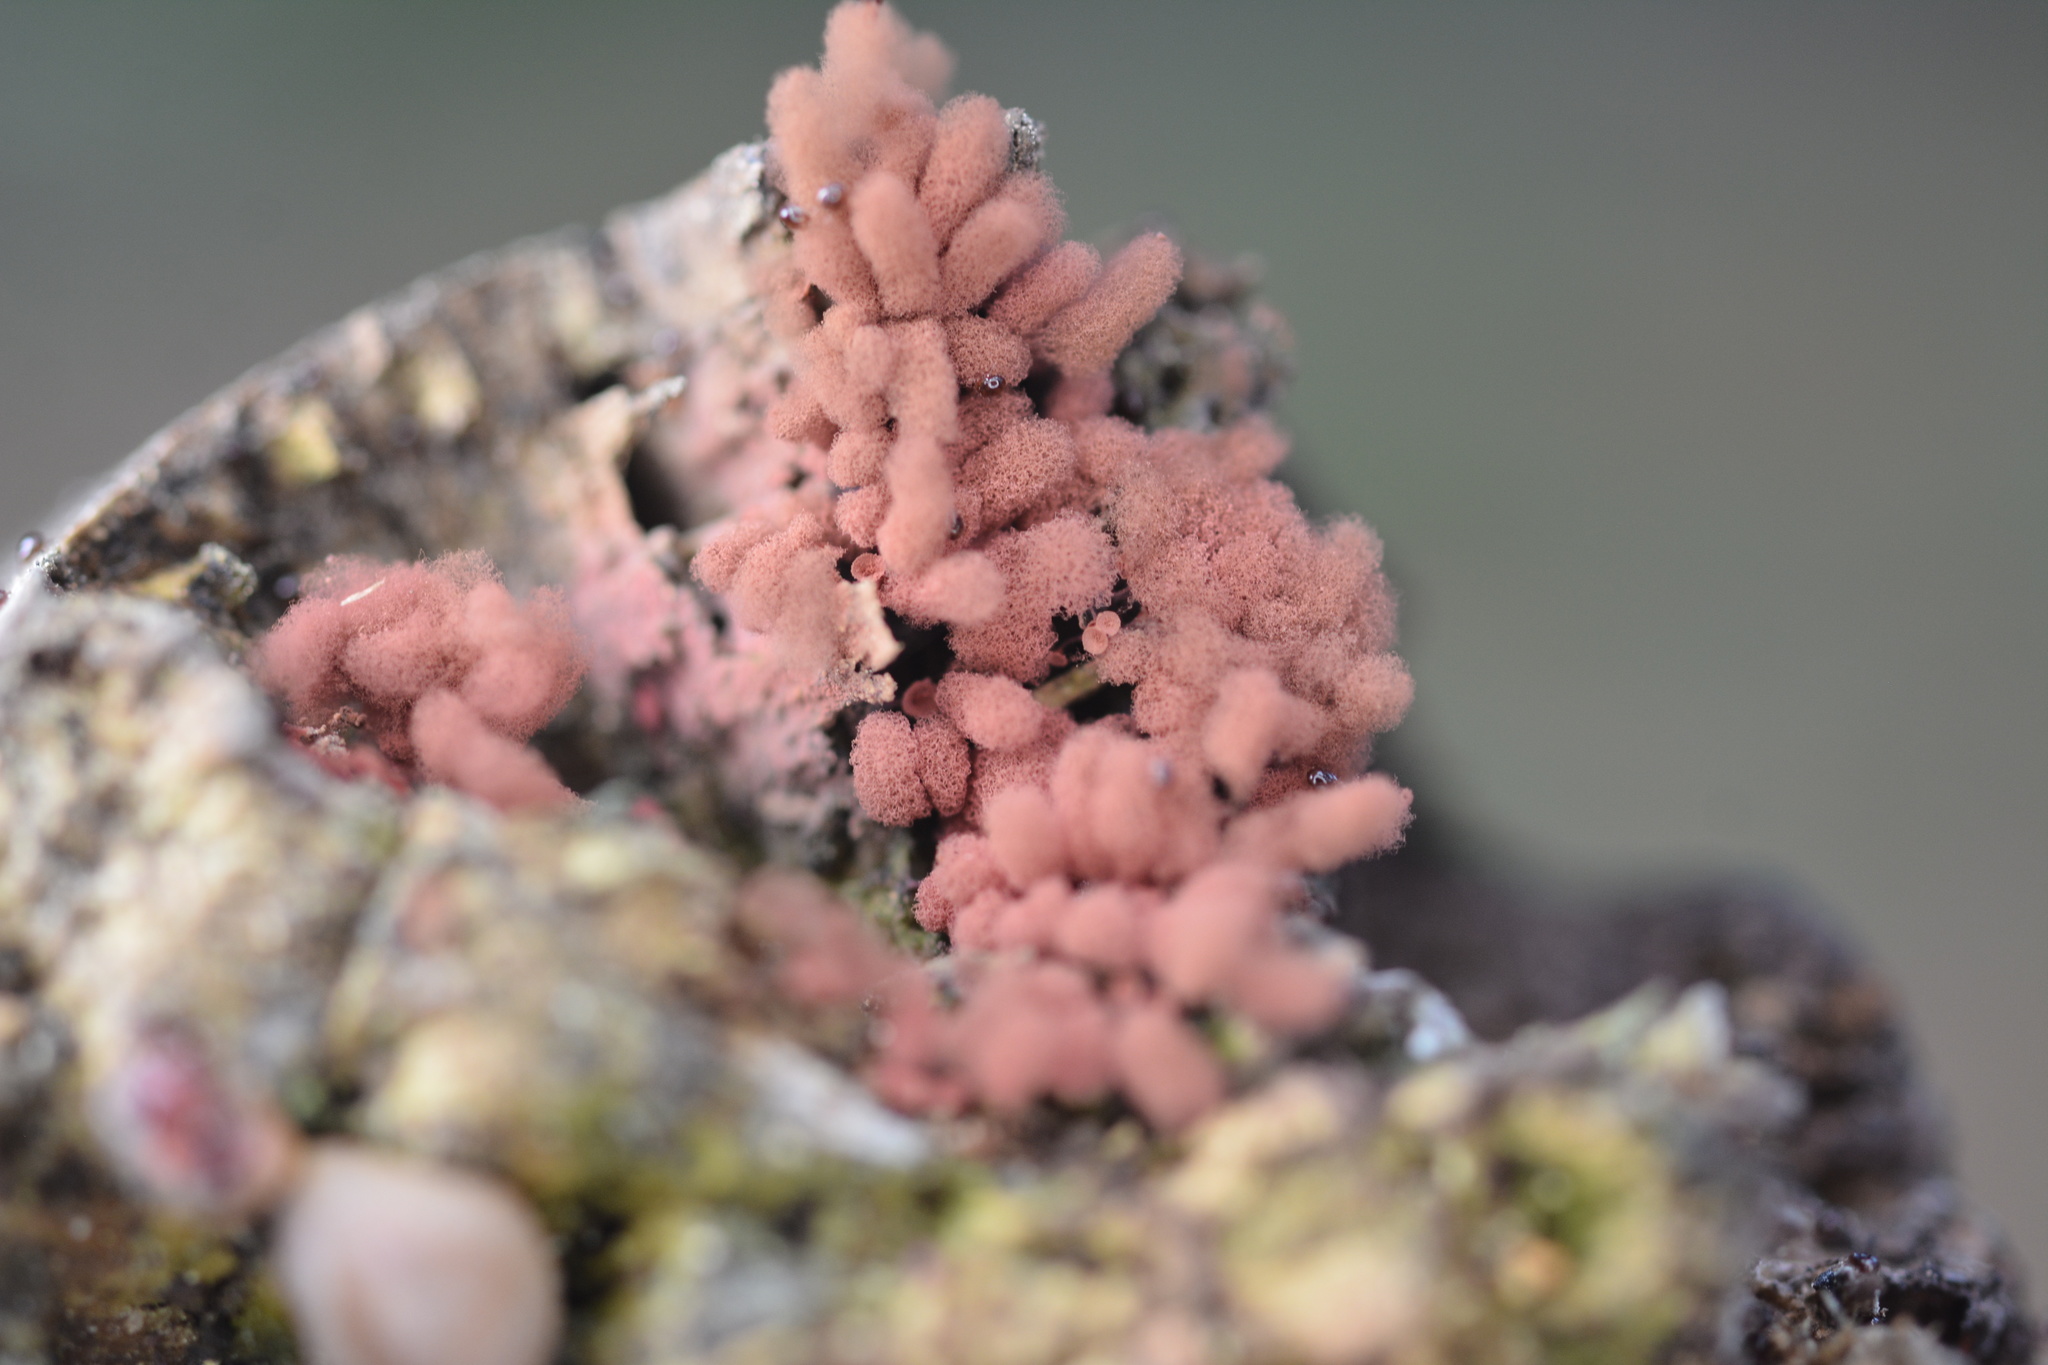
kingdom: Protozoa
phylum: Mycetozoa
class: Myxomycetes
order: Trichiales
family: Arcyriaceae
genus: Arcyria
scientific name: Arcyria denudata
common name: Carnival candy slime mold
